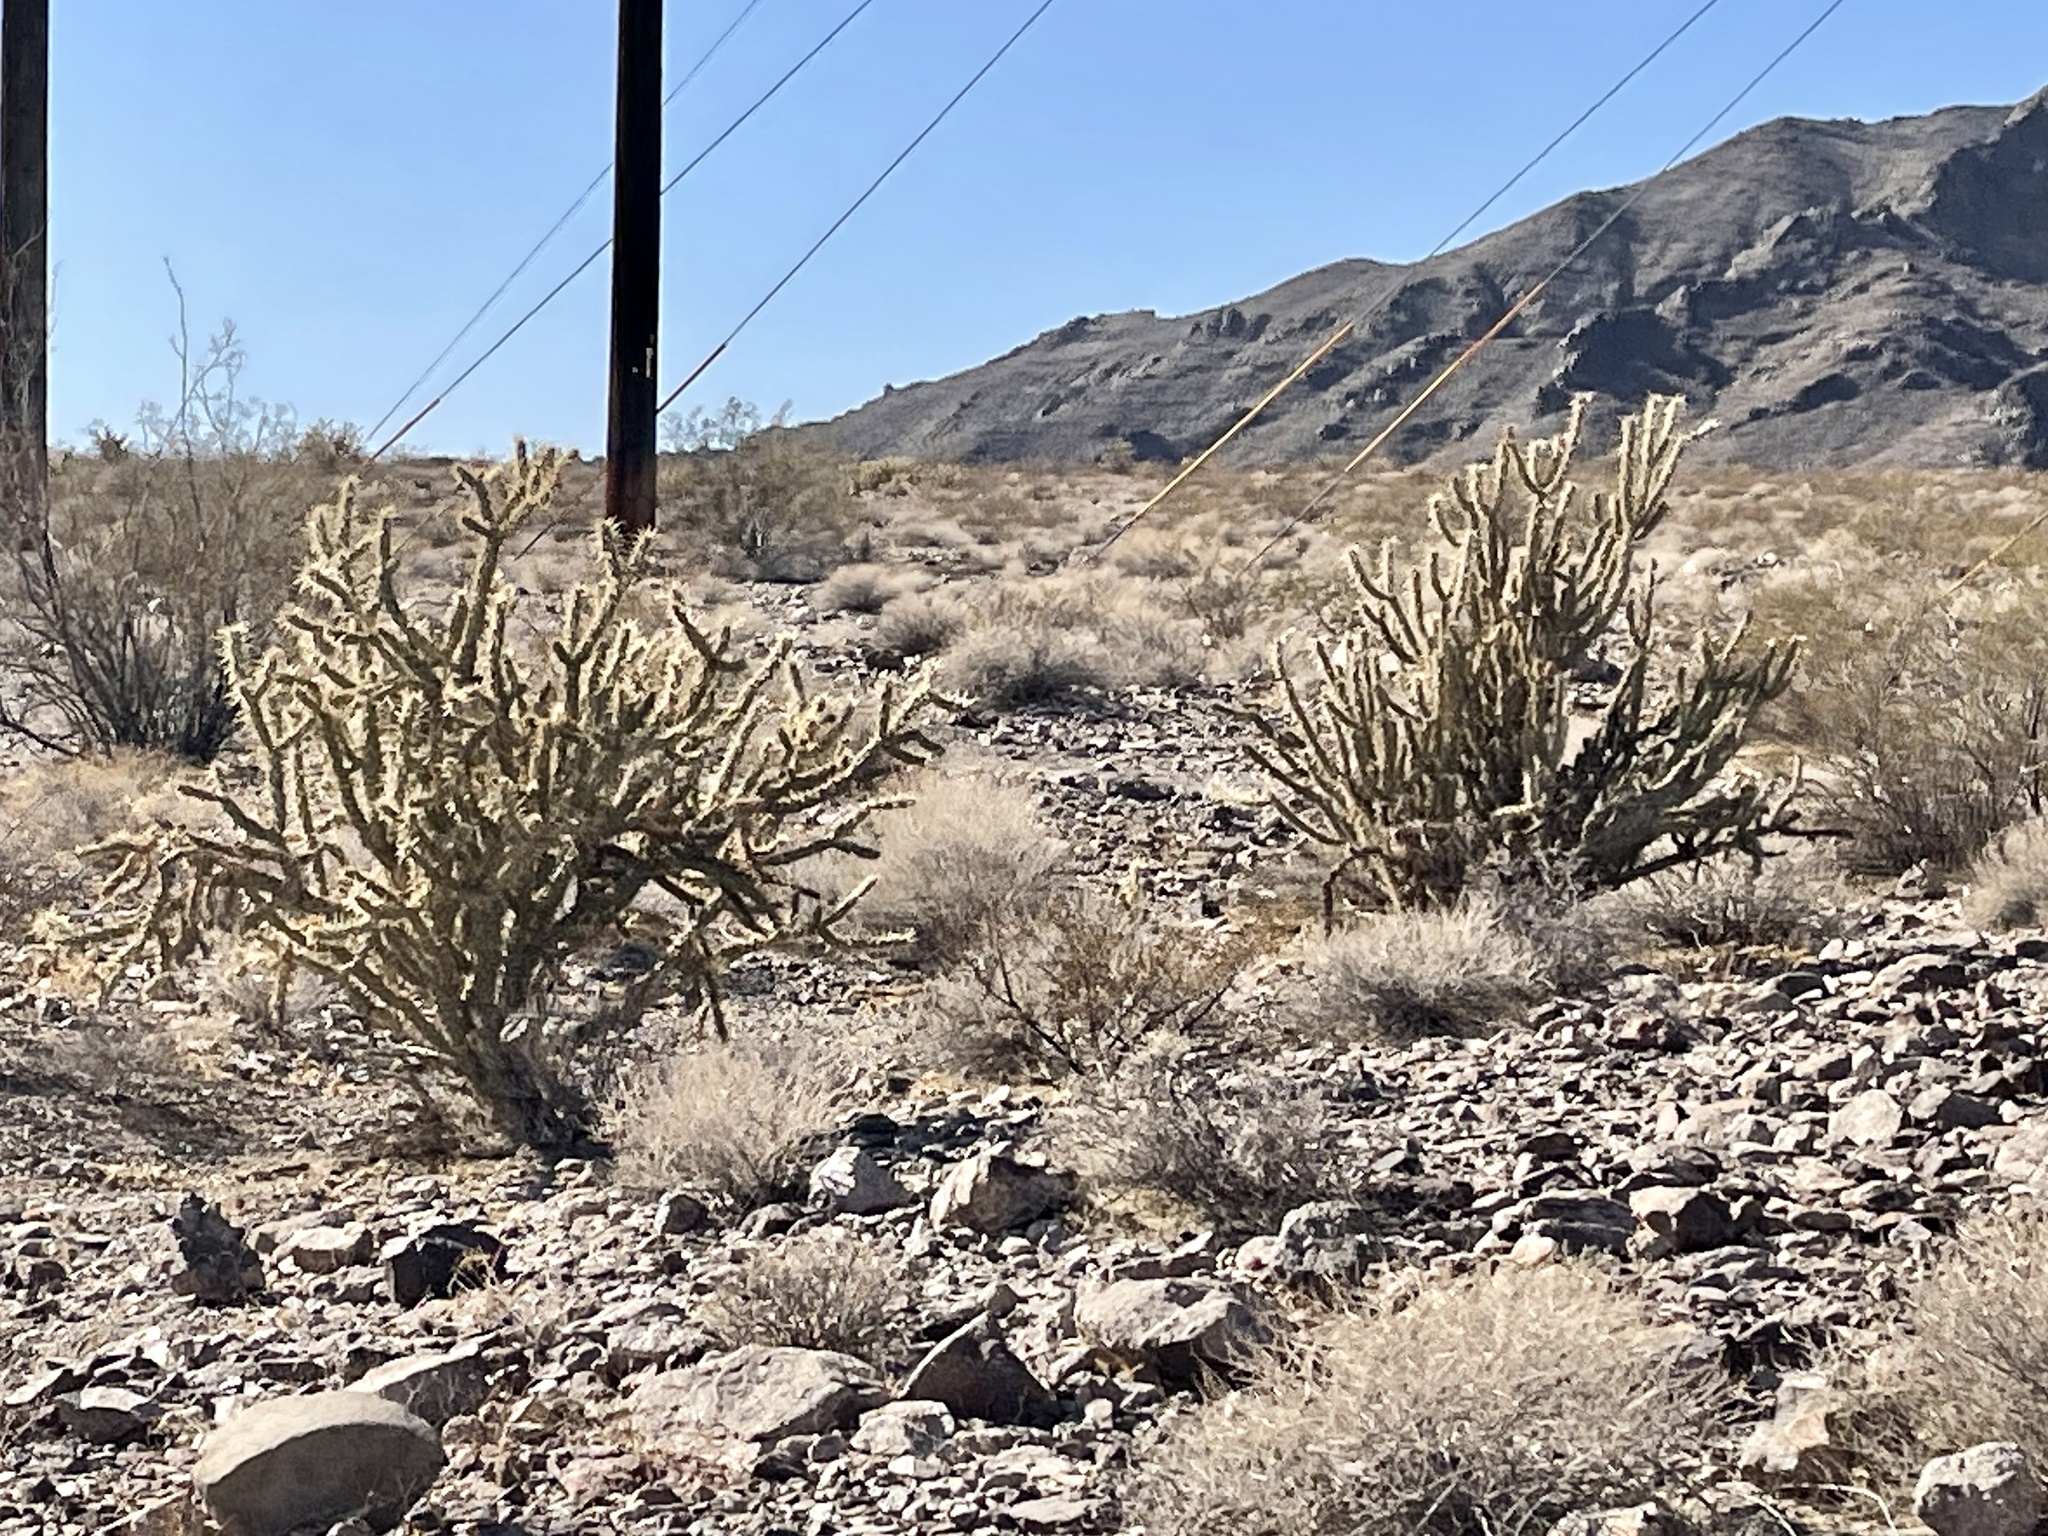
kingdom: Plantae
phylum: Tracheophyta
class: Magnoliopsida
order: Caryophyllales
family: Cactaceae
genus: Cylindropuntia
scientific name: Cylindropuntia acanthocarpa
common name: Buckhorn cholla
